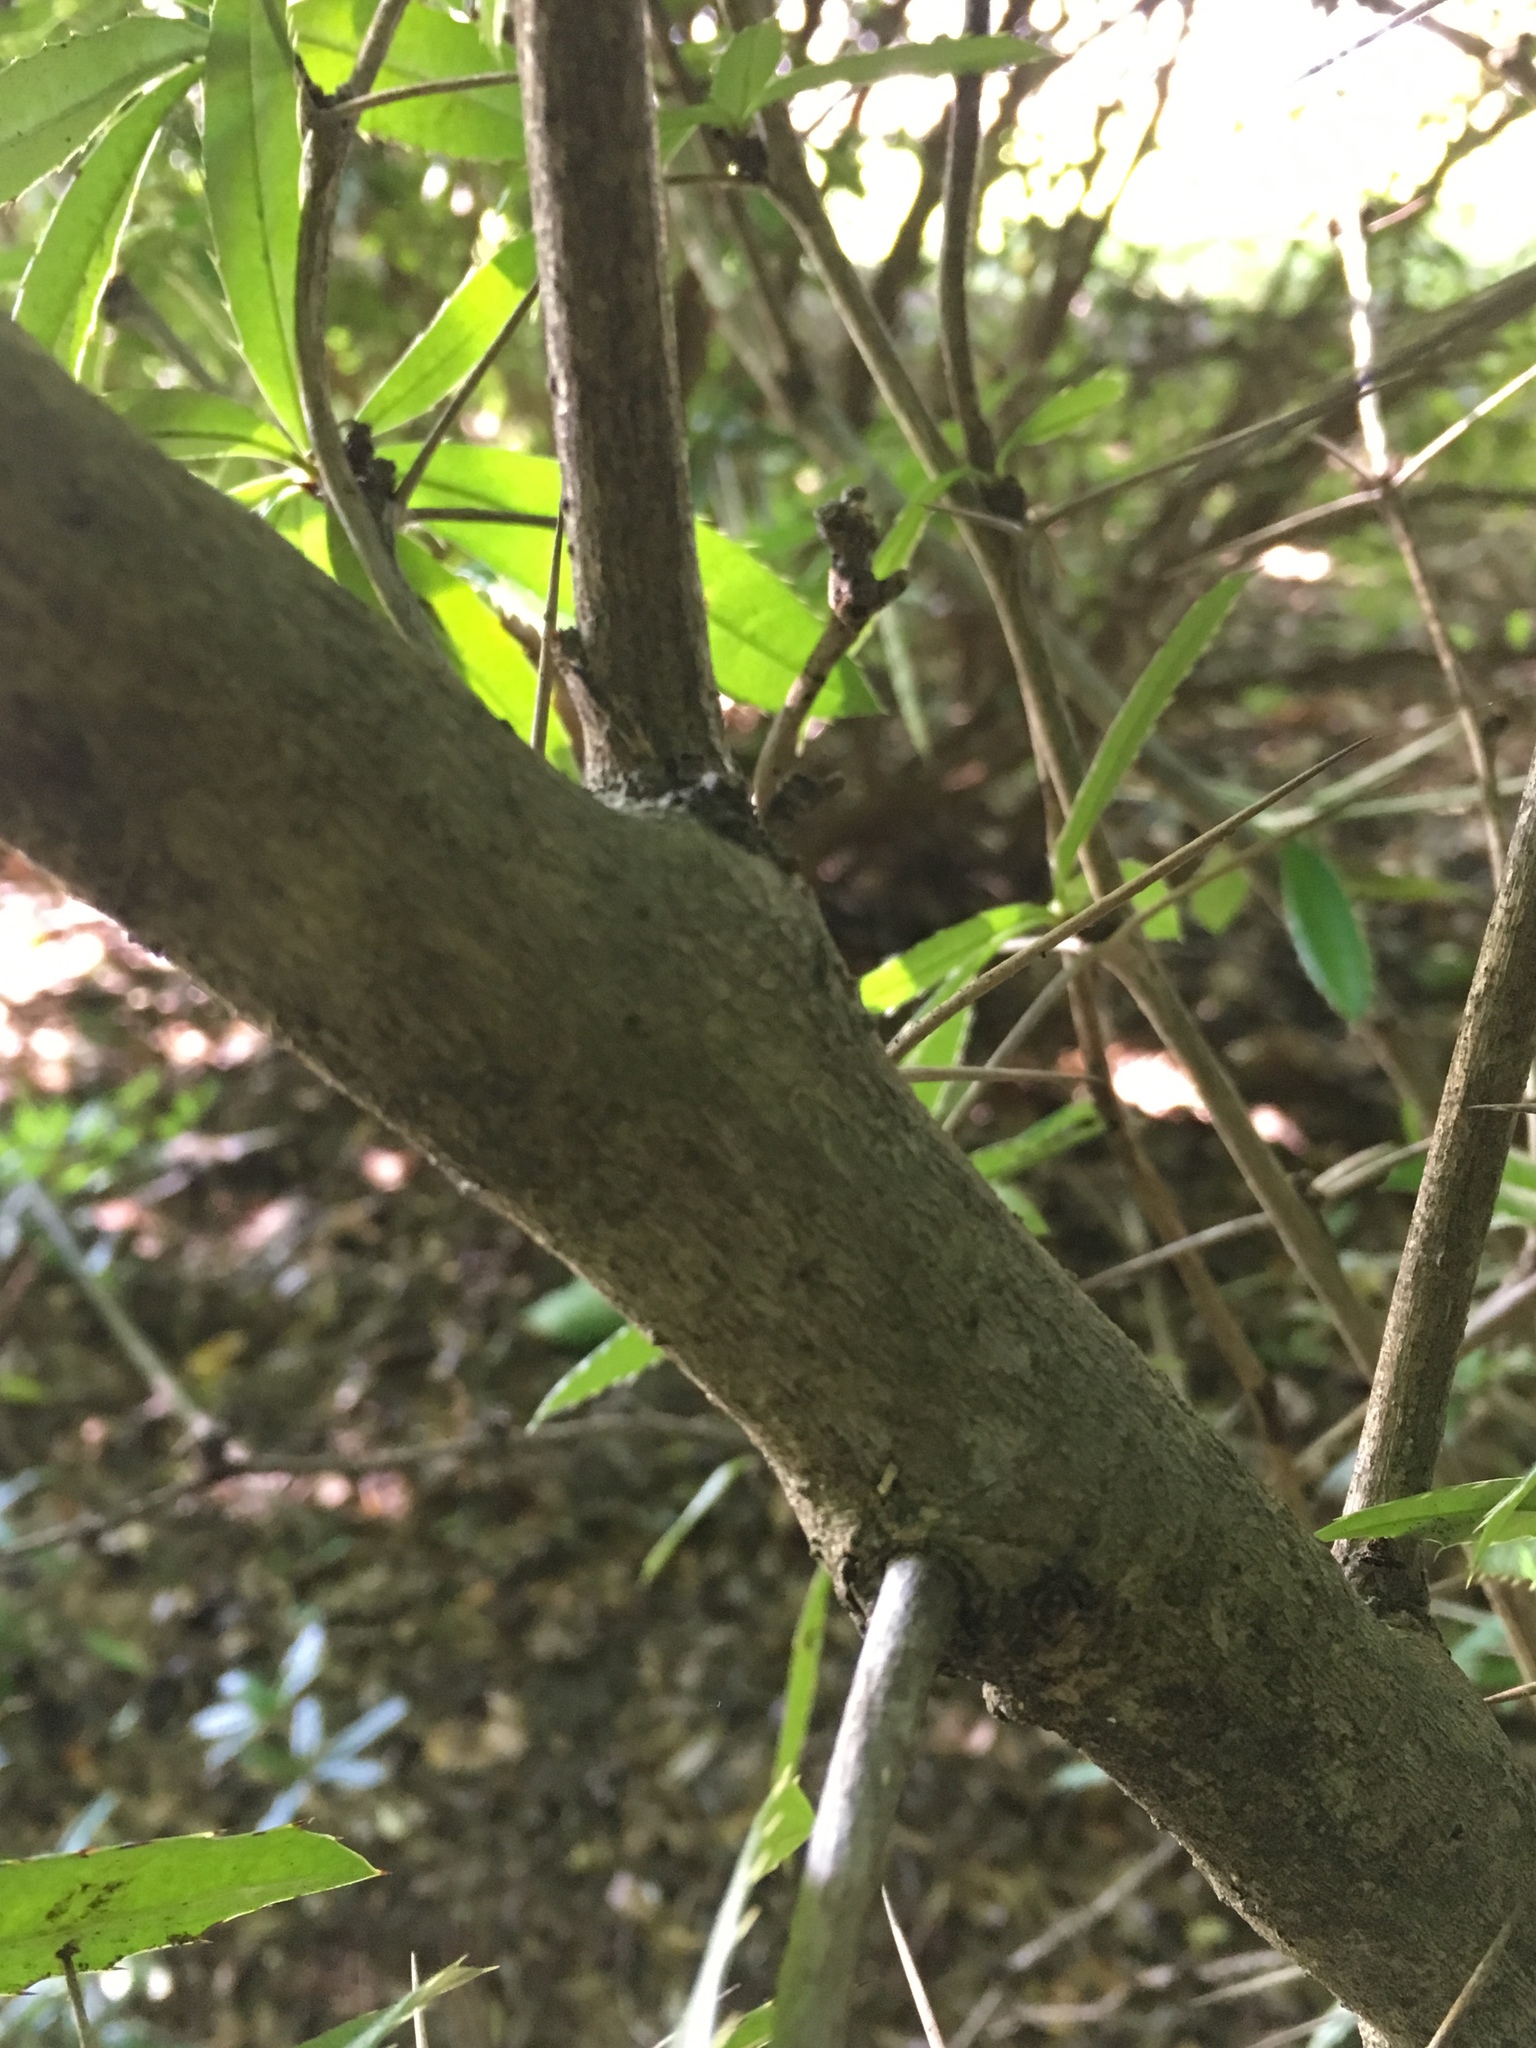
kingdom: Plantae
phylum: Tracheophyta
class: Magnoliopsida
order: Ranunculales
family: Berberidaceae
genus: Berberis
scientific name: Berberis julianae
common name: Wintergreen barberry
